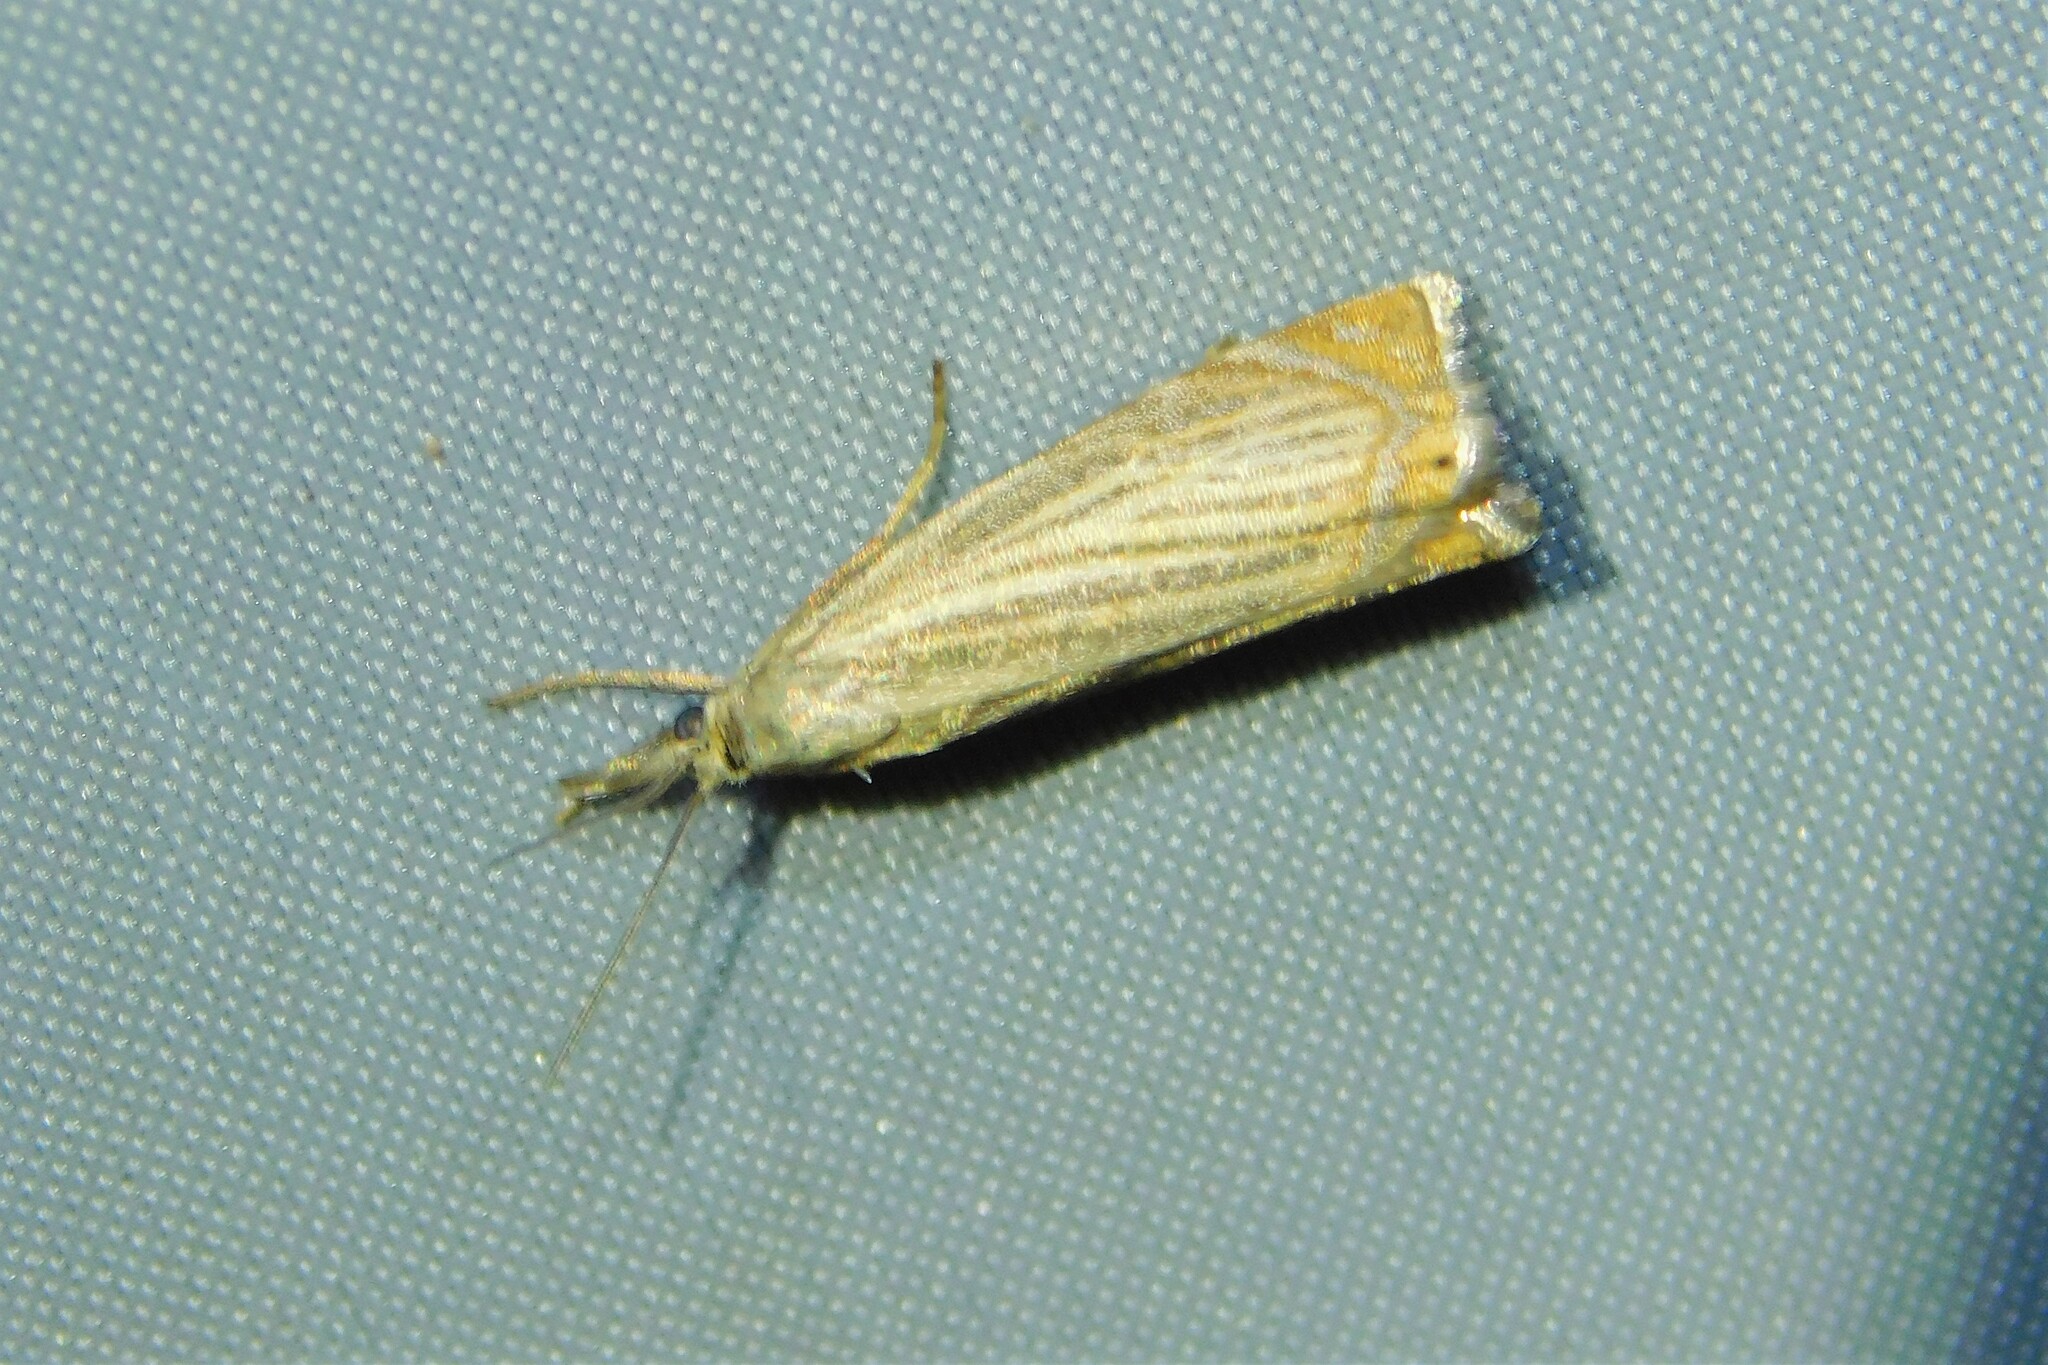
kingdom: Animalia
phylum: Arthropoda
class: Insecta
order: Lepidoptera
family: Crambidae
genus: Chrysoteuchia
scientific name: Chrysoteuchia culmella
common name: Garden grass-veneer
